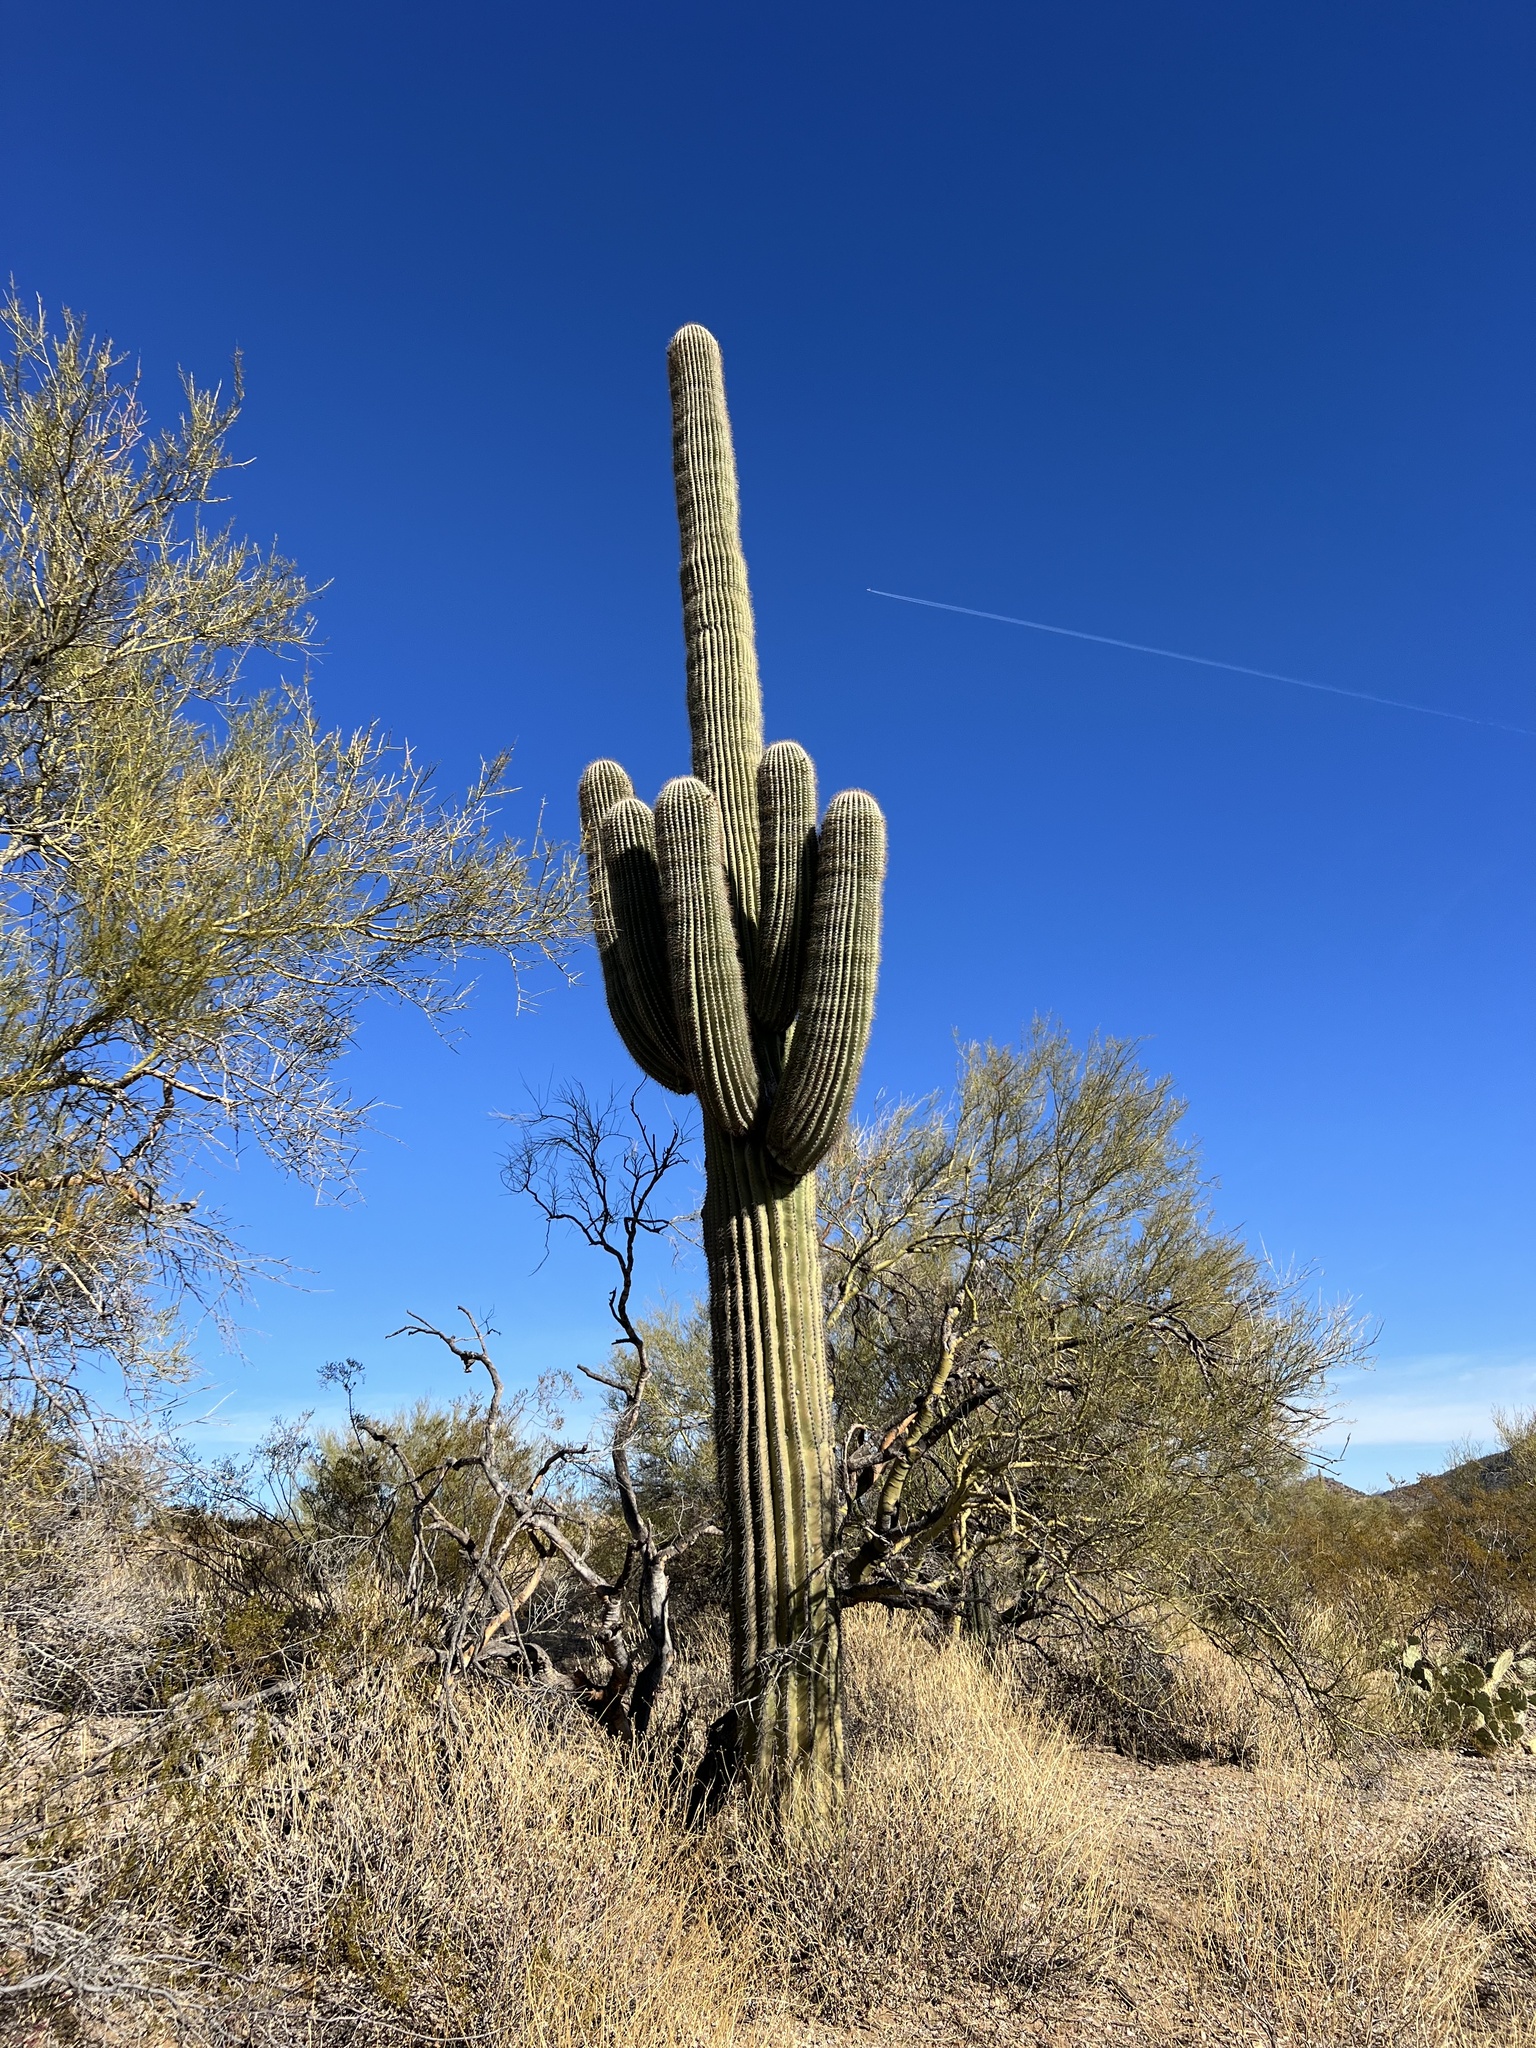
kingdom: Plantae
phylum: Tracheophyta
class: Magnoliopsida
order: Caryophyllales
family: Cactaceae
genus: Carnegiea
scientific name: Carnegiea gigantea
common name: Saguaro
